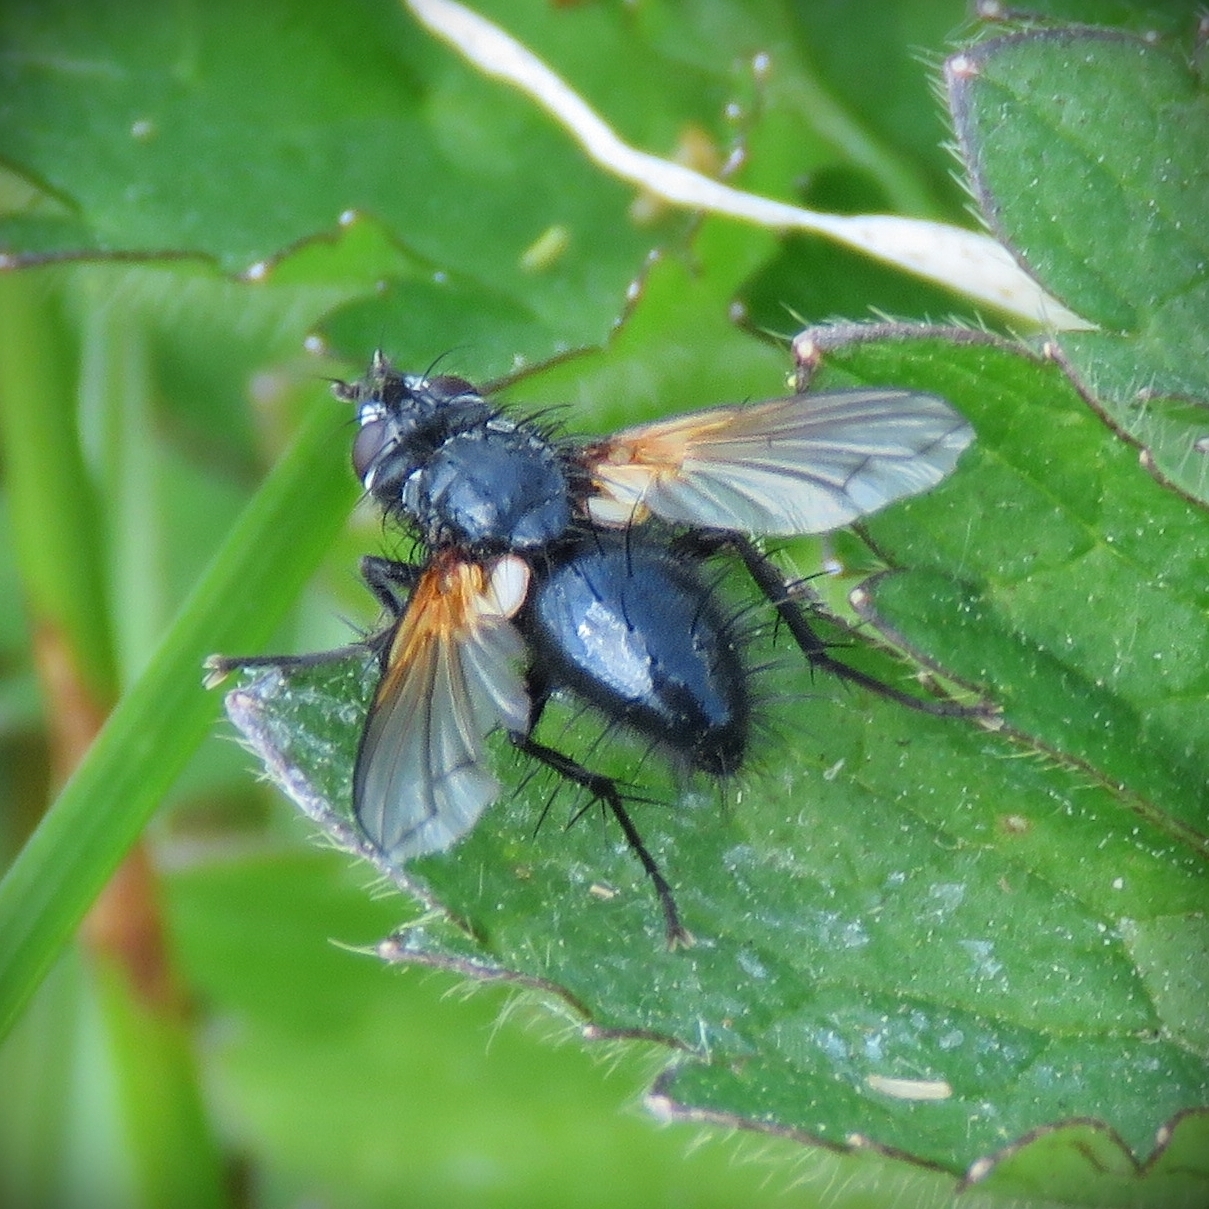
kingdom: Animalia
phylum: Arthropoda
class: Insecta
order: Diptera
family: Tachinidae
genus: Zophomyia
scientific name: Zophomyia temula
